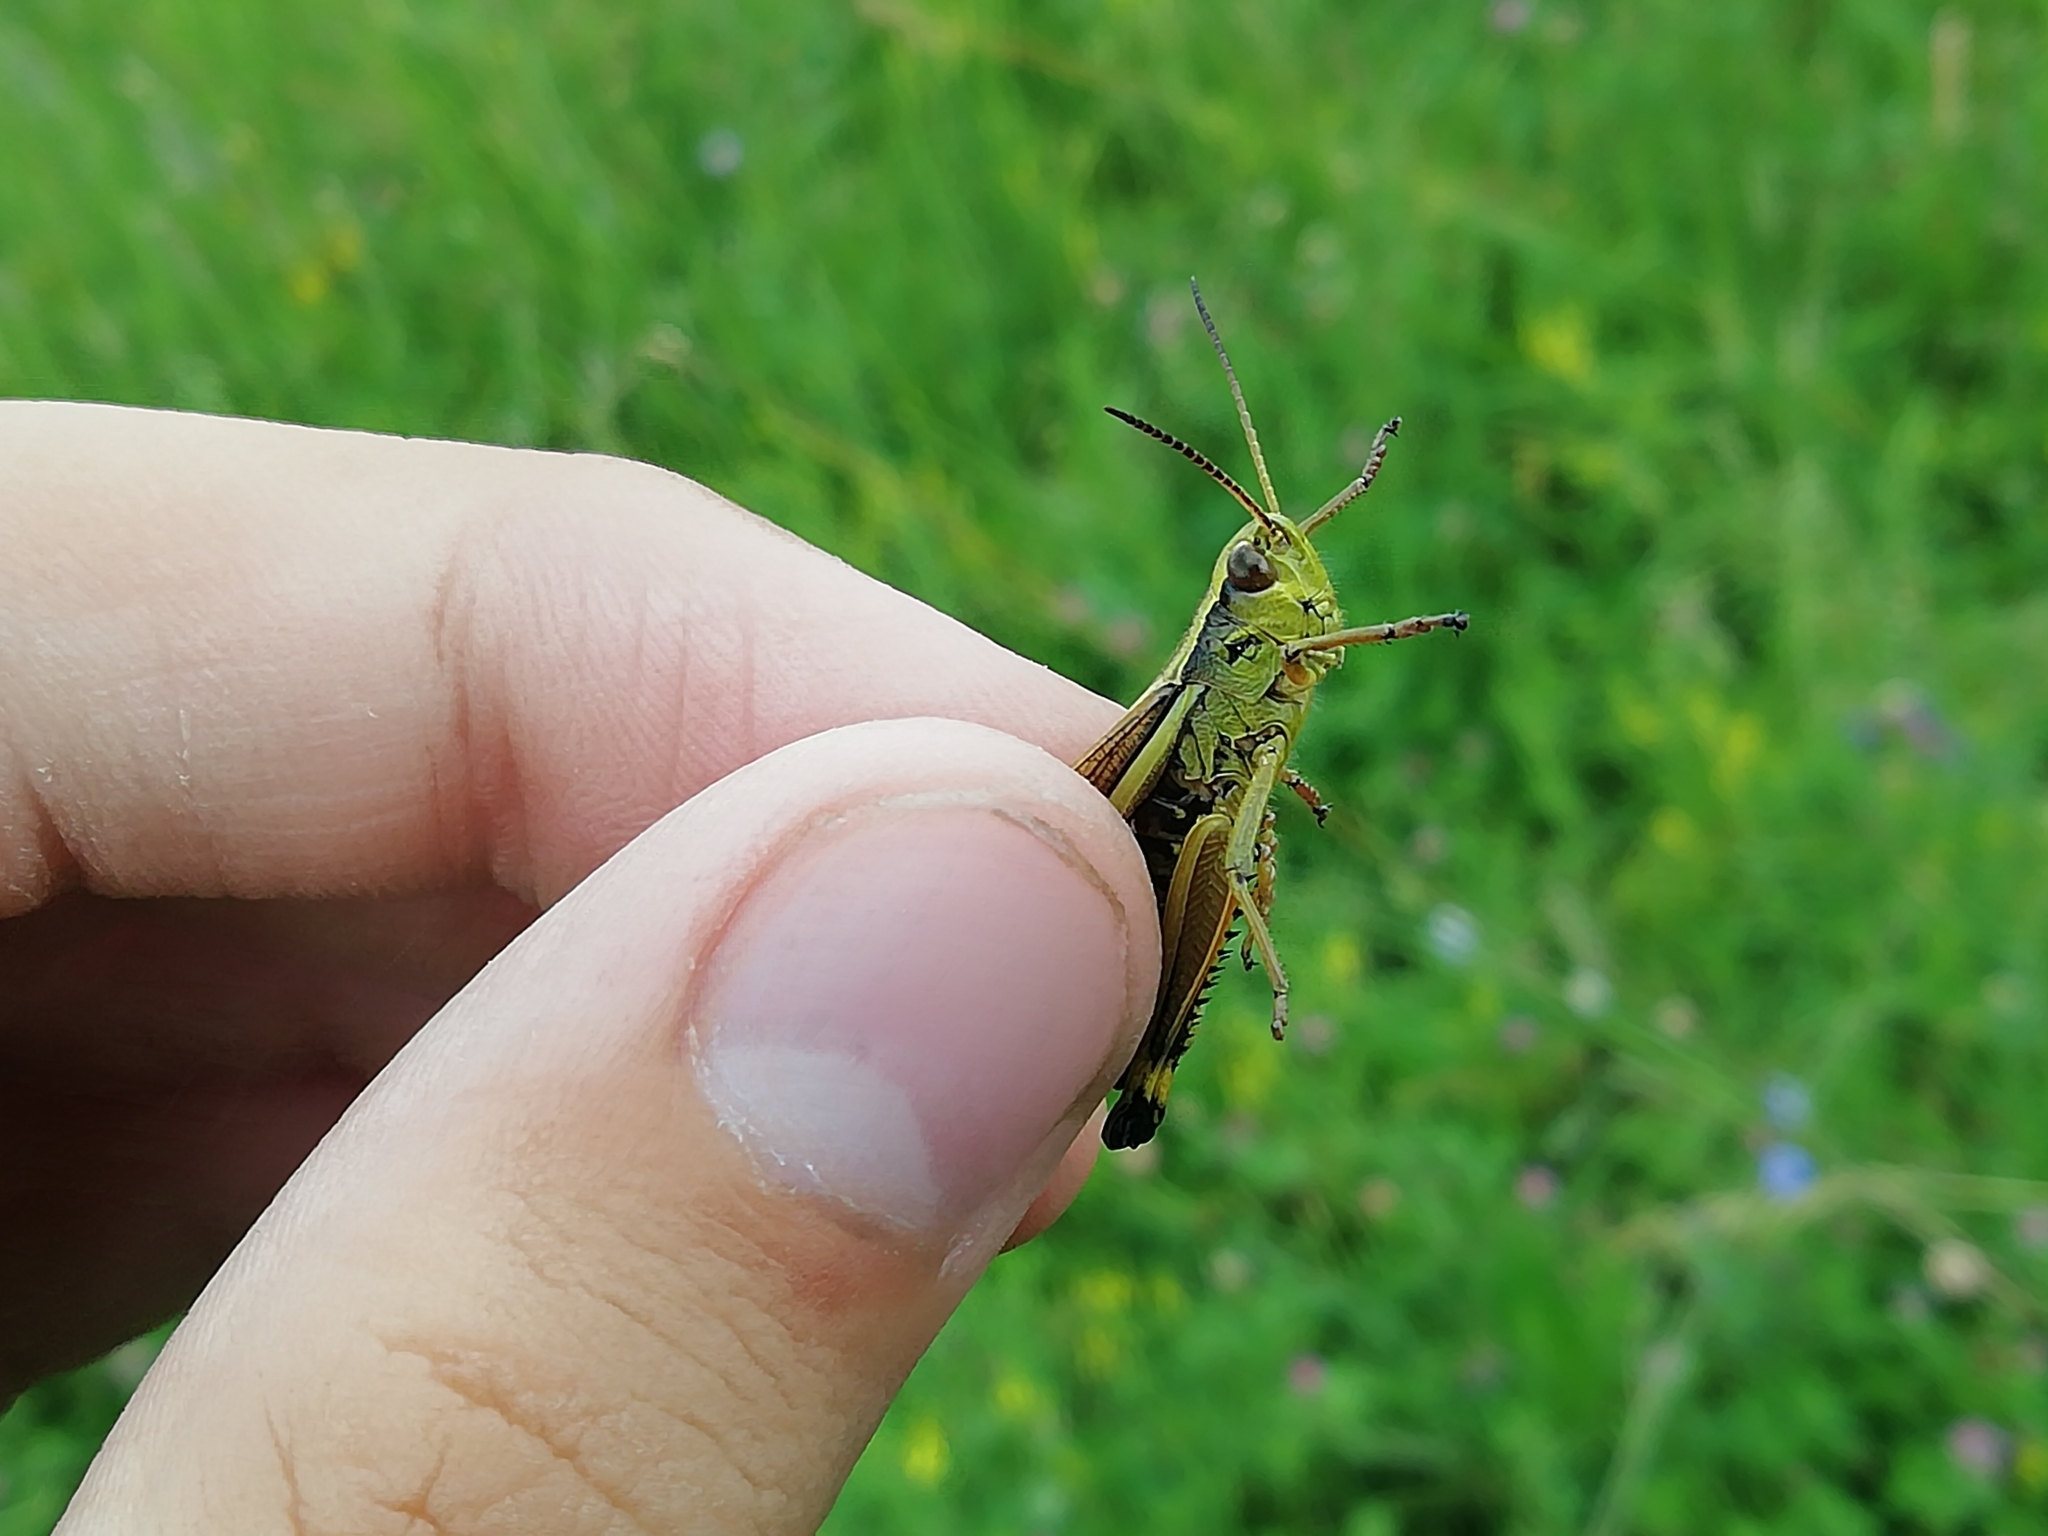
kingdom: Animalia
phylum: Arthropoda
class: Insecta
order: Orthoptera
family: Acrididae
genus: Stethophyma
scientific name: Stethophyma grossum
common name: Large marsh grasshopper
